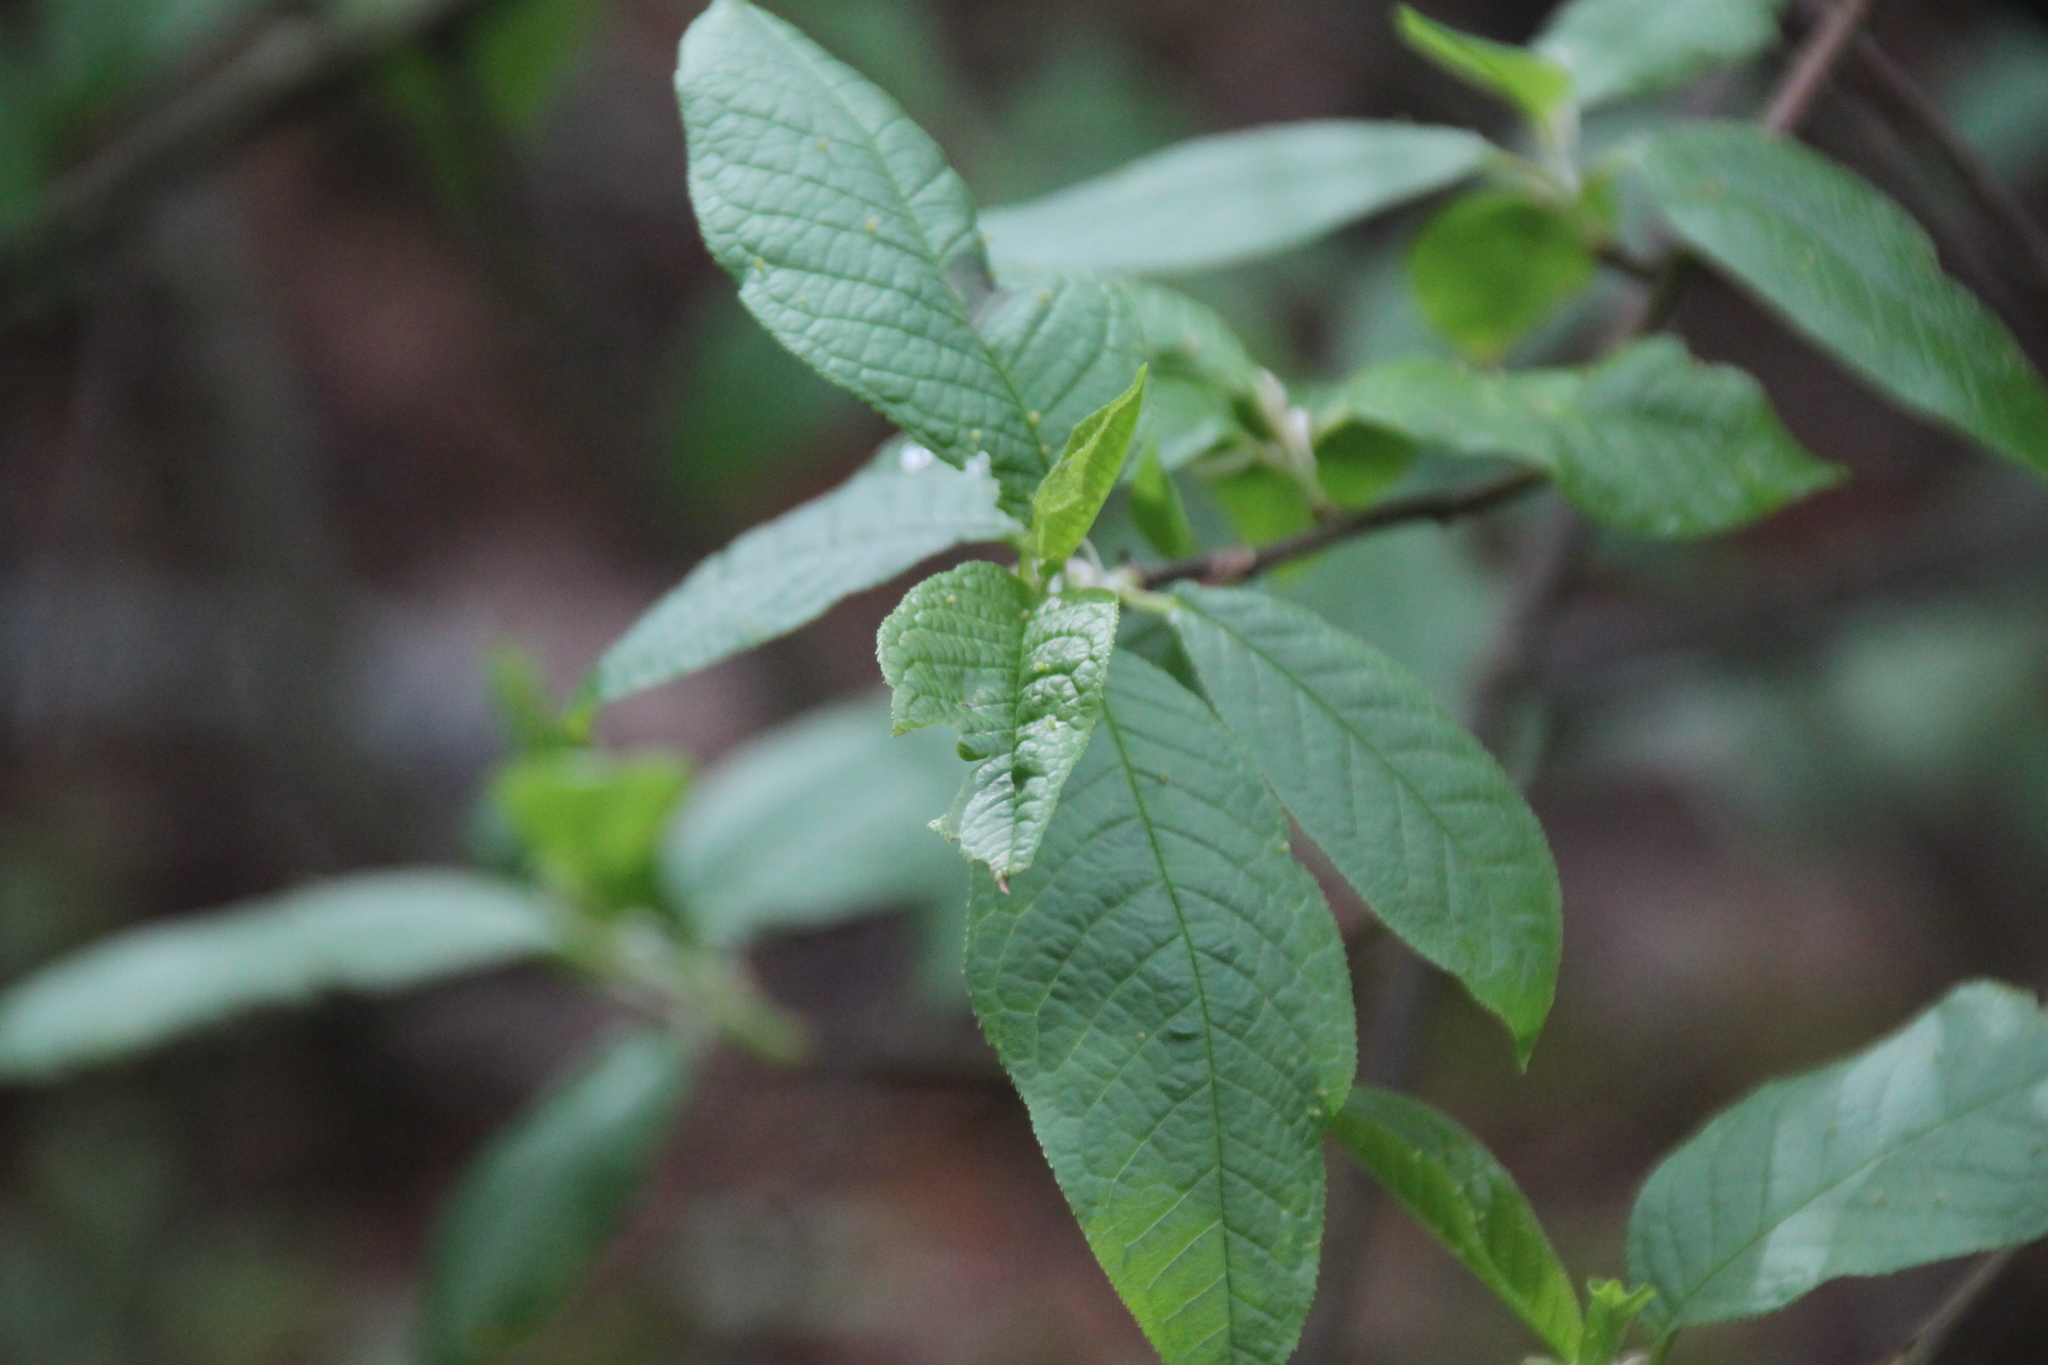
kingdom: Plantae
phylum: Tracheophyta
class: Magnoliopsida
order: Rosales
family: Rosaceae
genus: Prunus
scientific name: Prunus padus
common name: Bird cherry
